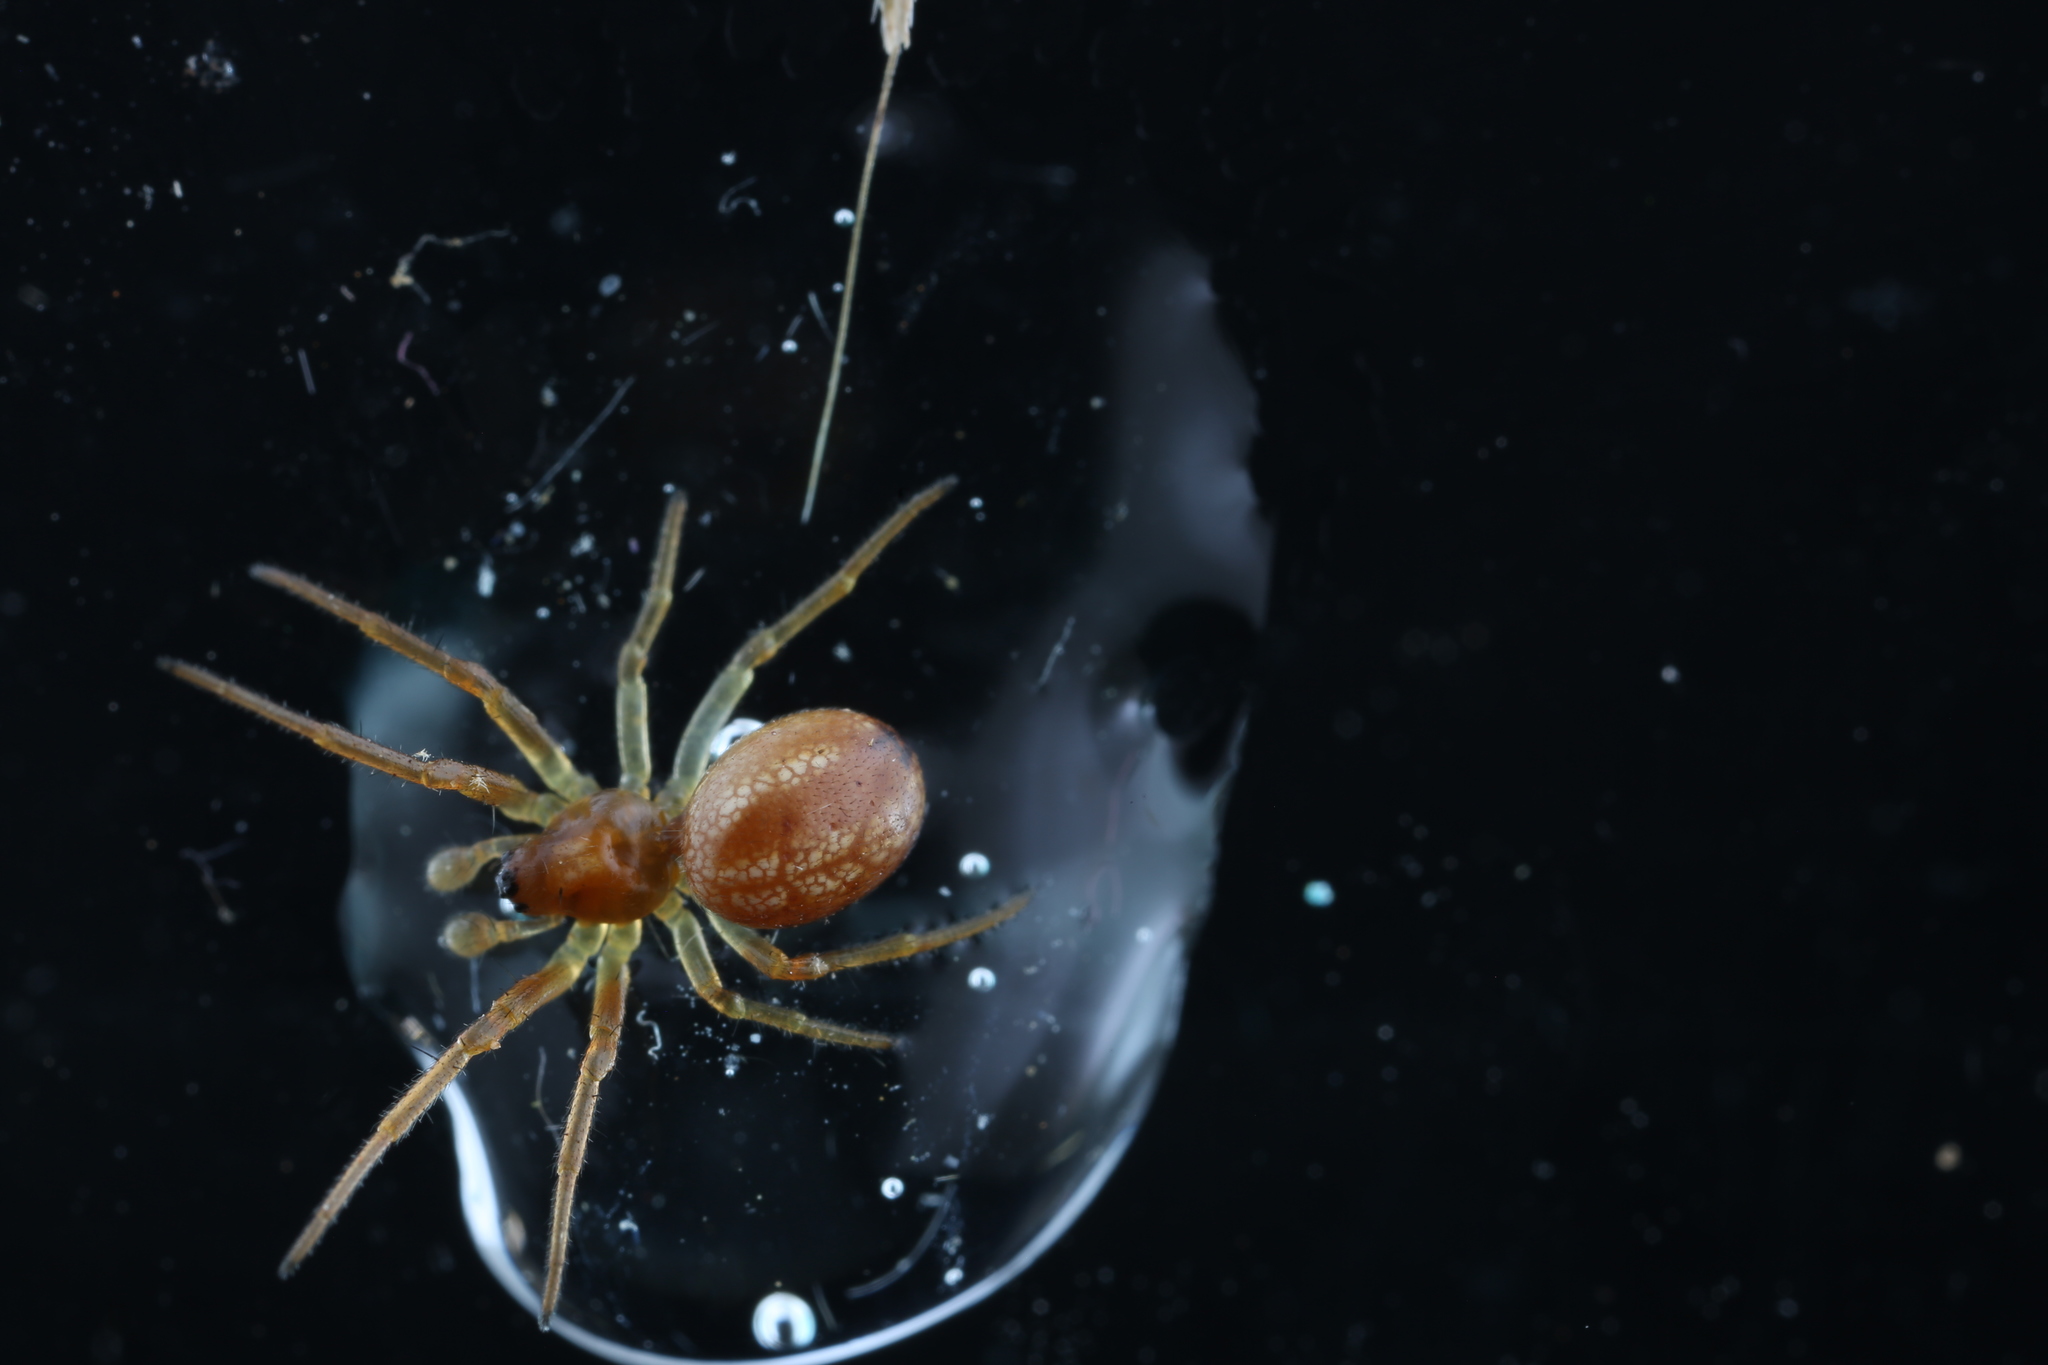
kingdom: Animalia
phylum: Arthropoda
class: Arachnida
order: Araneae
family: Araneidae
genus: Araneus
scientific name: Araneus pratensis
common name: Openfield orbweaver
